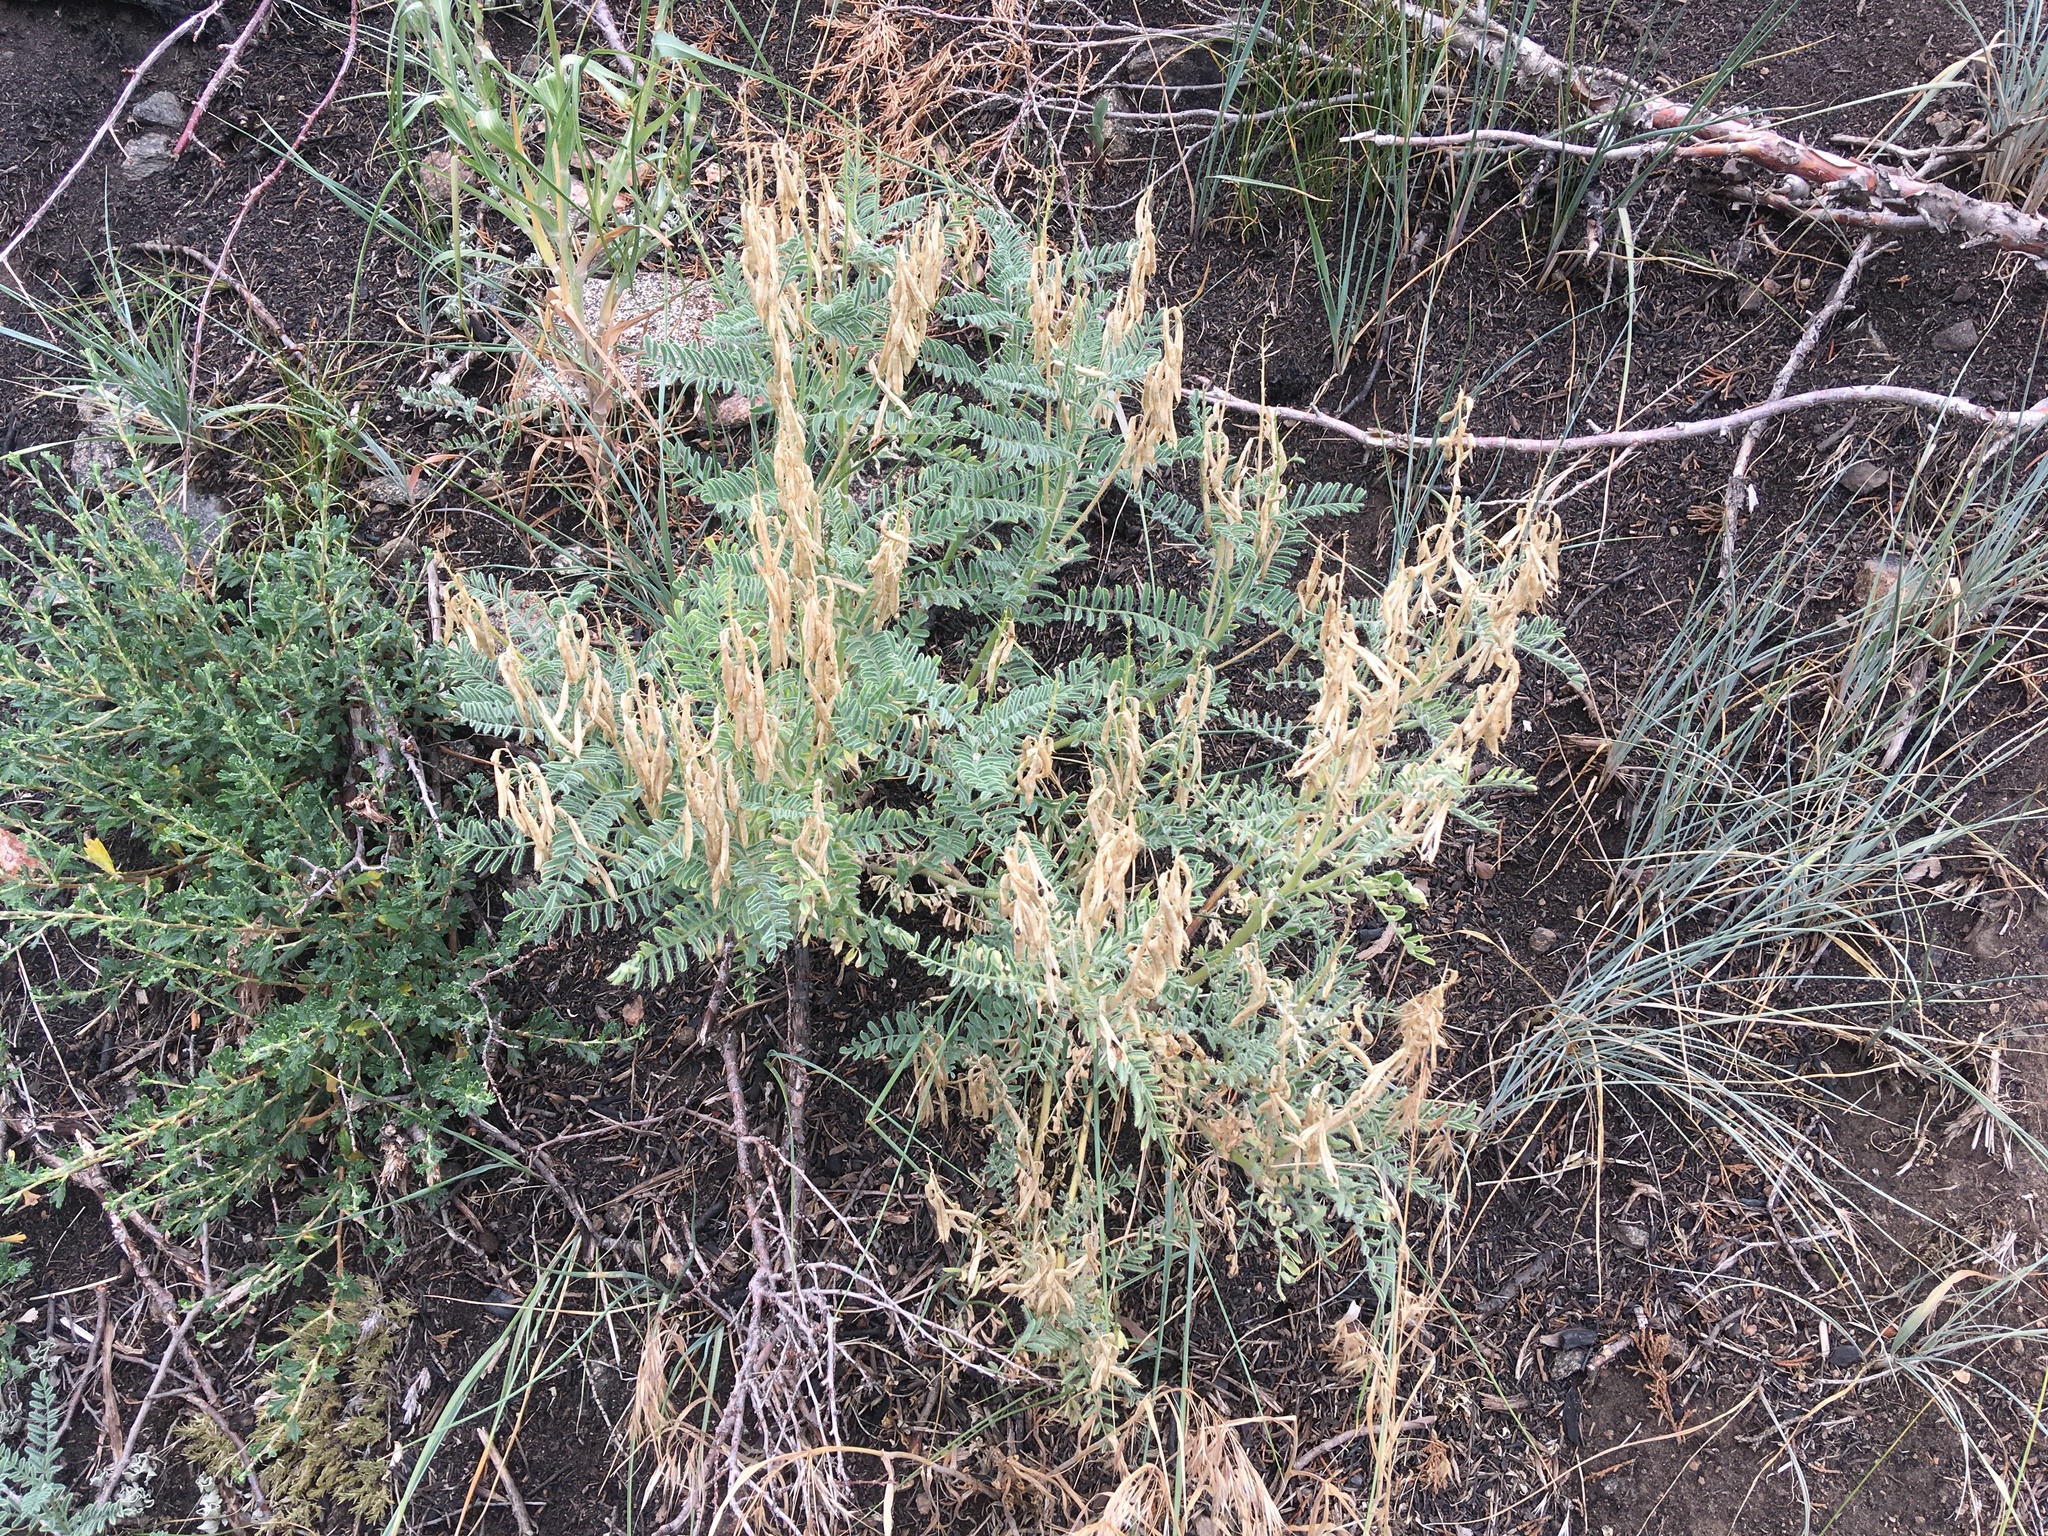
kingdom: Plantae
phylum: Tracheophyta
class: Magnoliopsida
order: Fabales
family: Fabaceae
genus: Astragalus
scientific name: Astragalus drummondii
